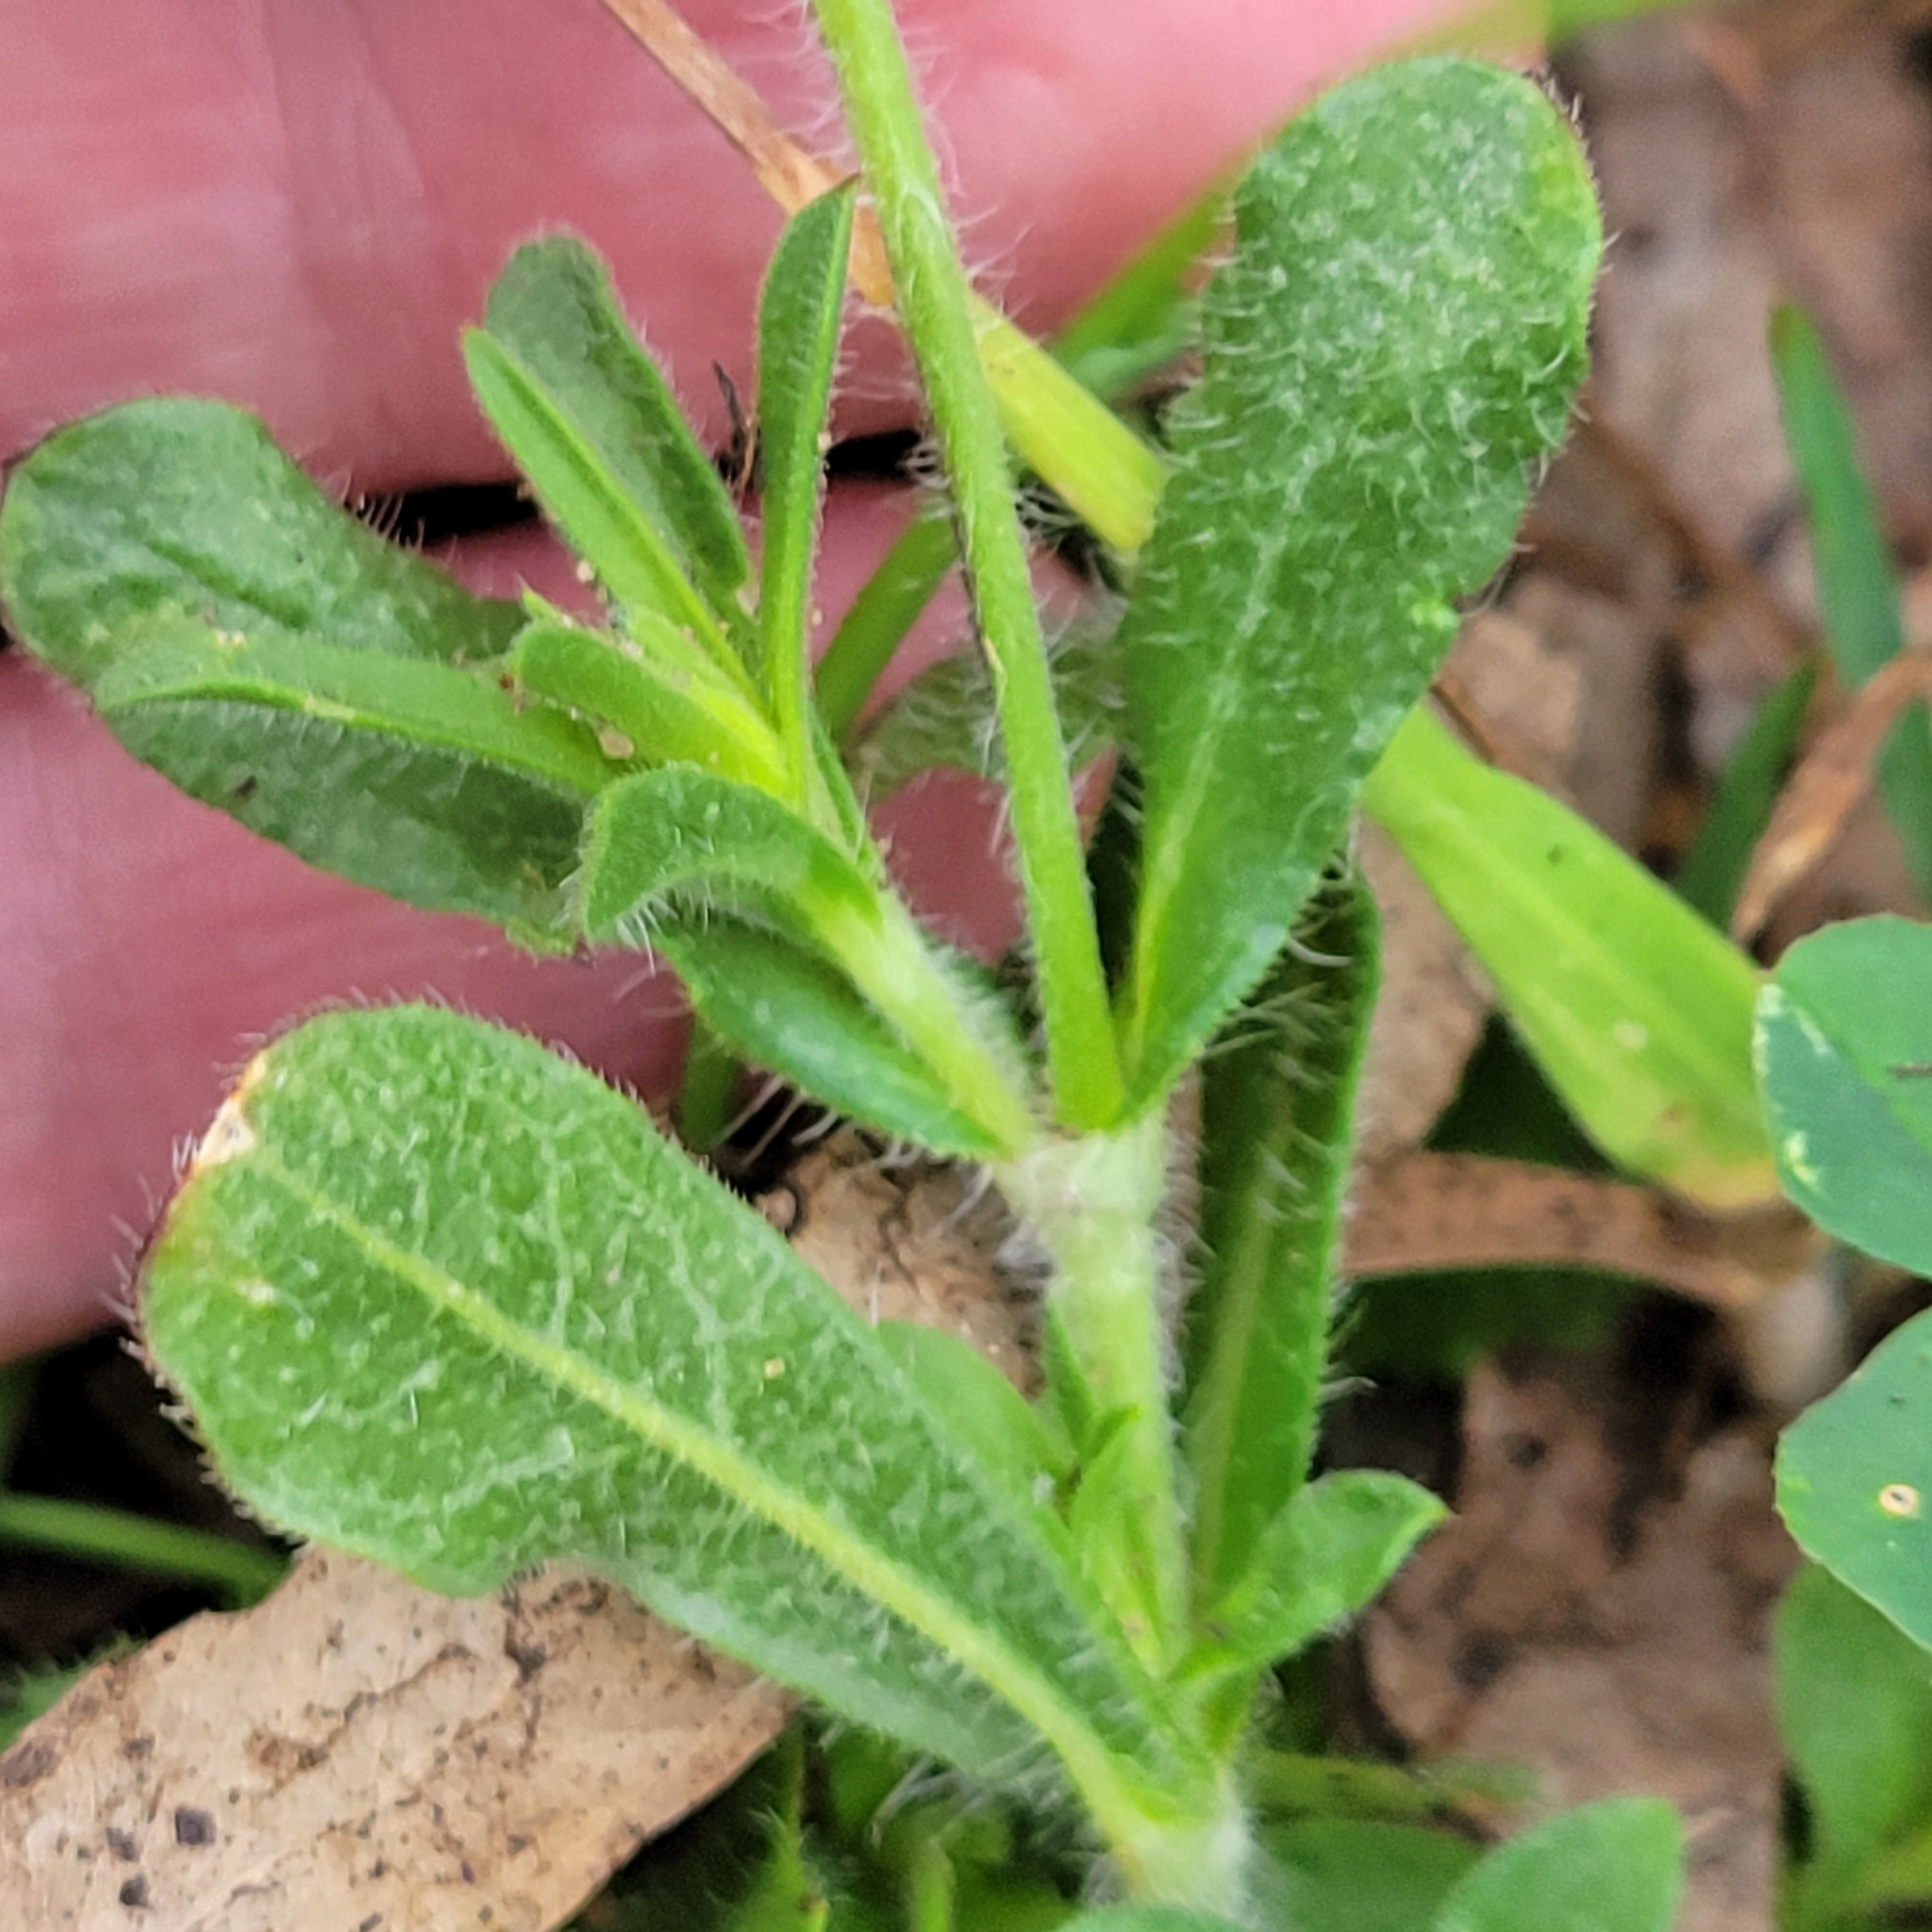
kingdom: Plantae
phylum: Tracheophyta
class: Magnoliopsida
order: Caryophyllales
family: Caryophyllaceae
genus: Silene
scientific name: Silene gallica
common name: Small-flowered catchfly
